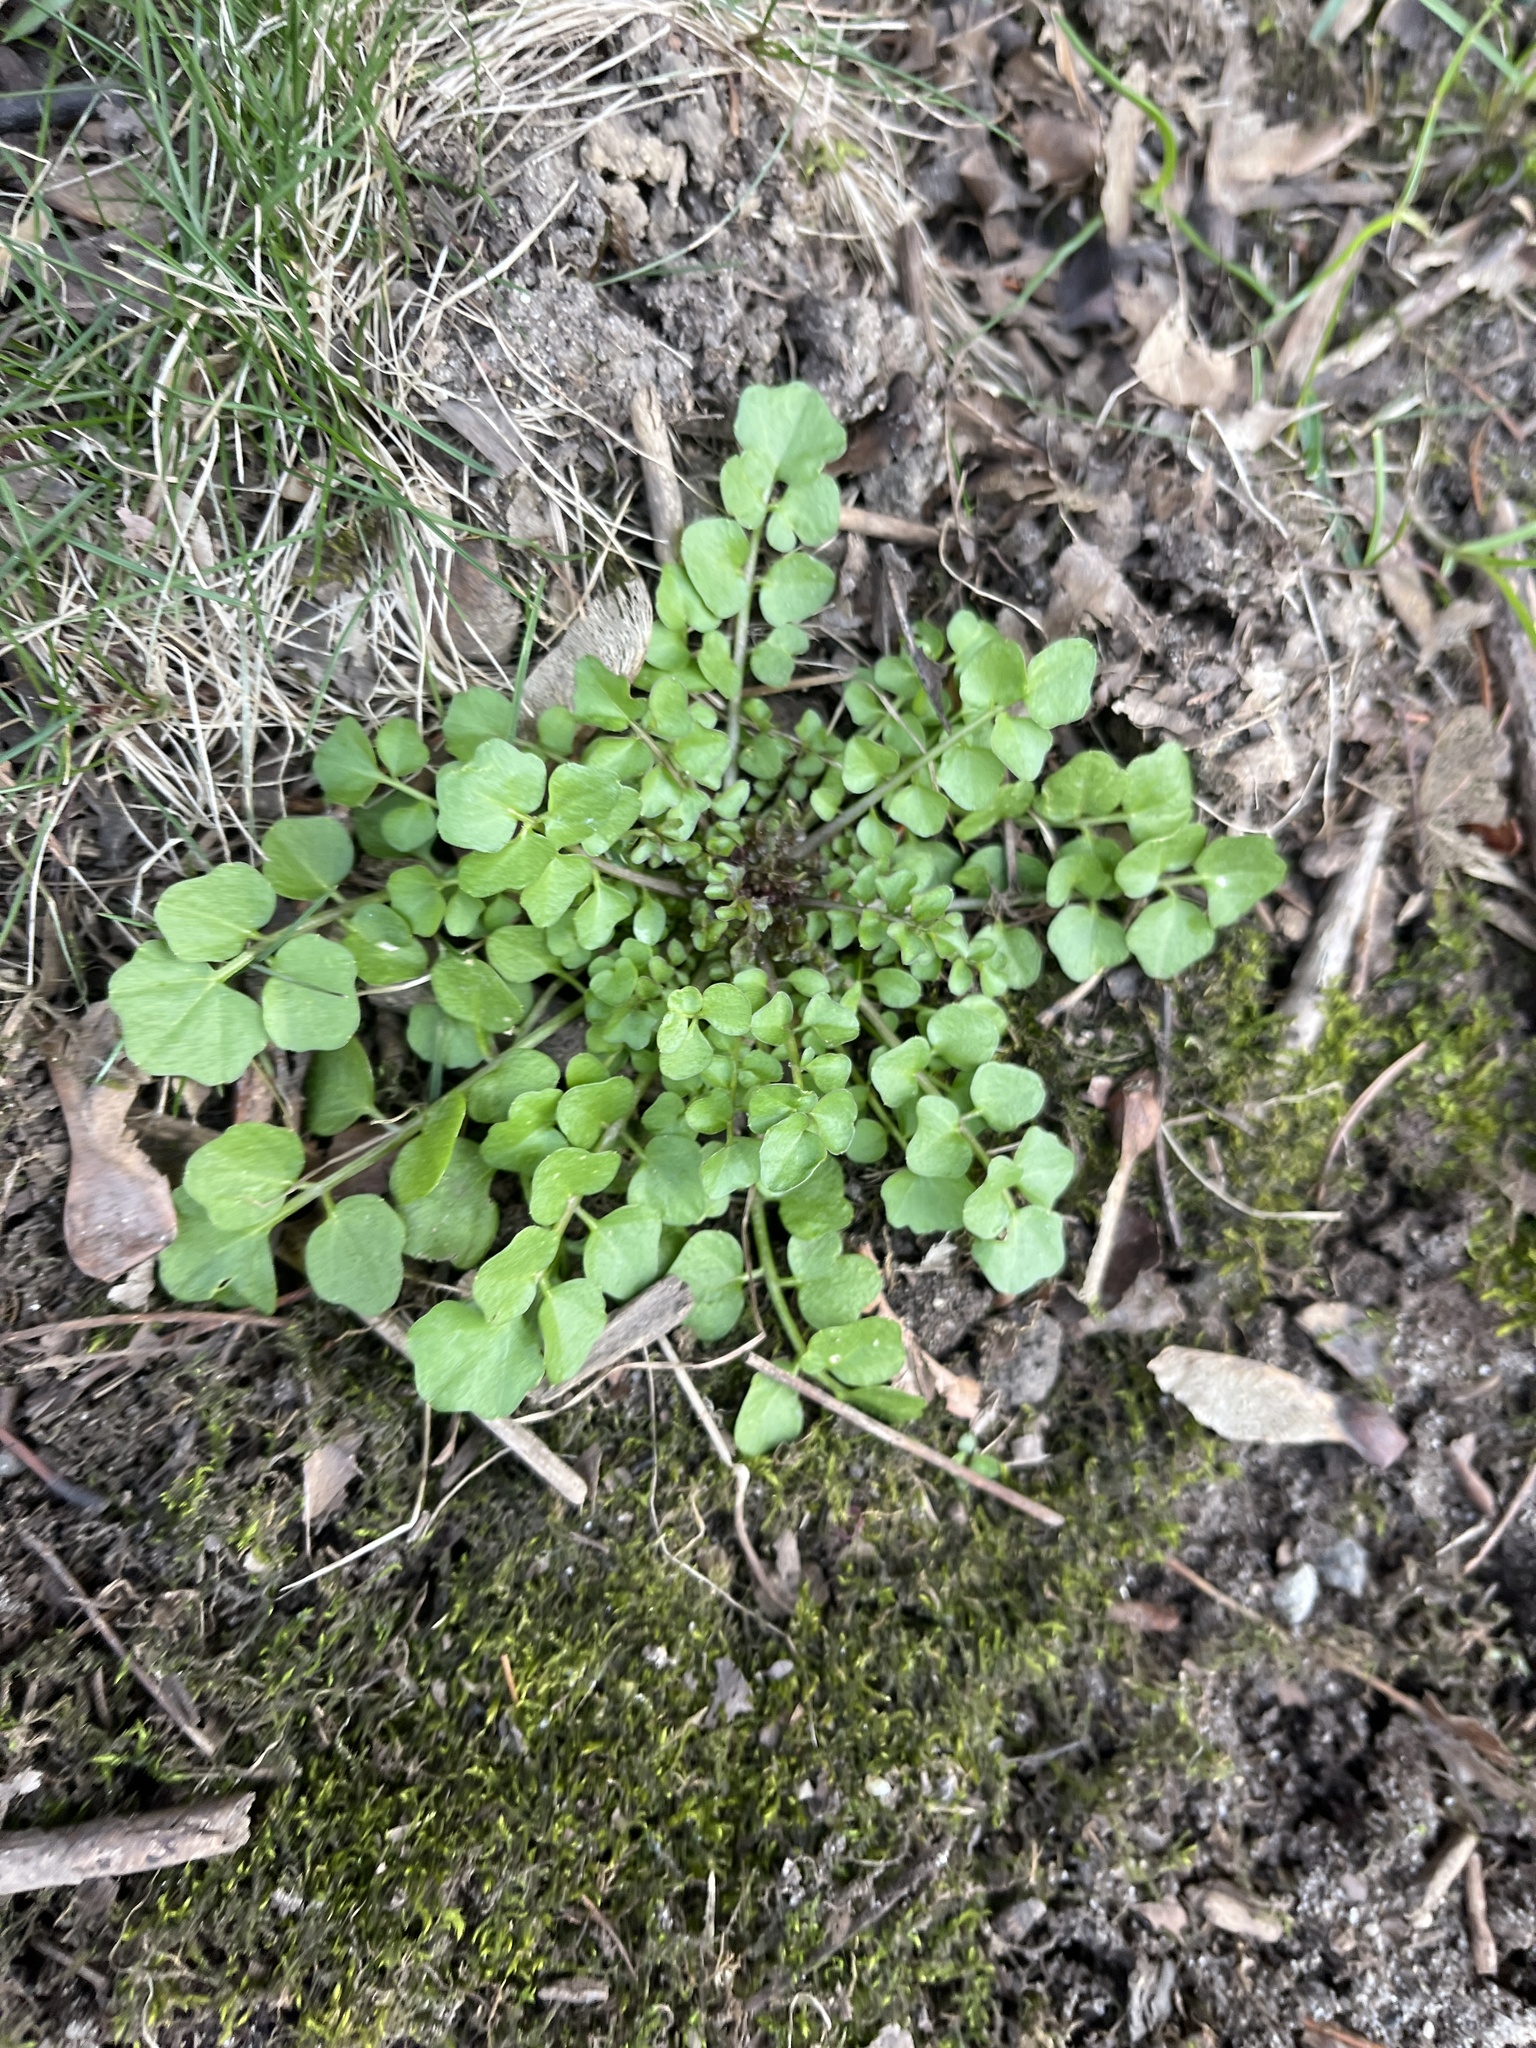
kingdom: Plantae
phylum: Tracheophyta
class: Magnoliopsida
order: Brassicales
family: Brassicaceae
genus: Cardamine
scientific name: Cardamine hirsuta
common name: Hairy bittercress
